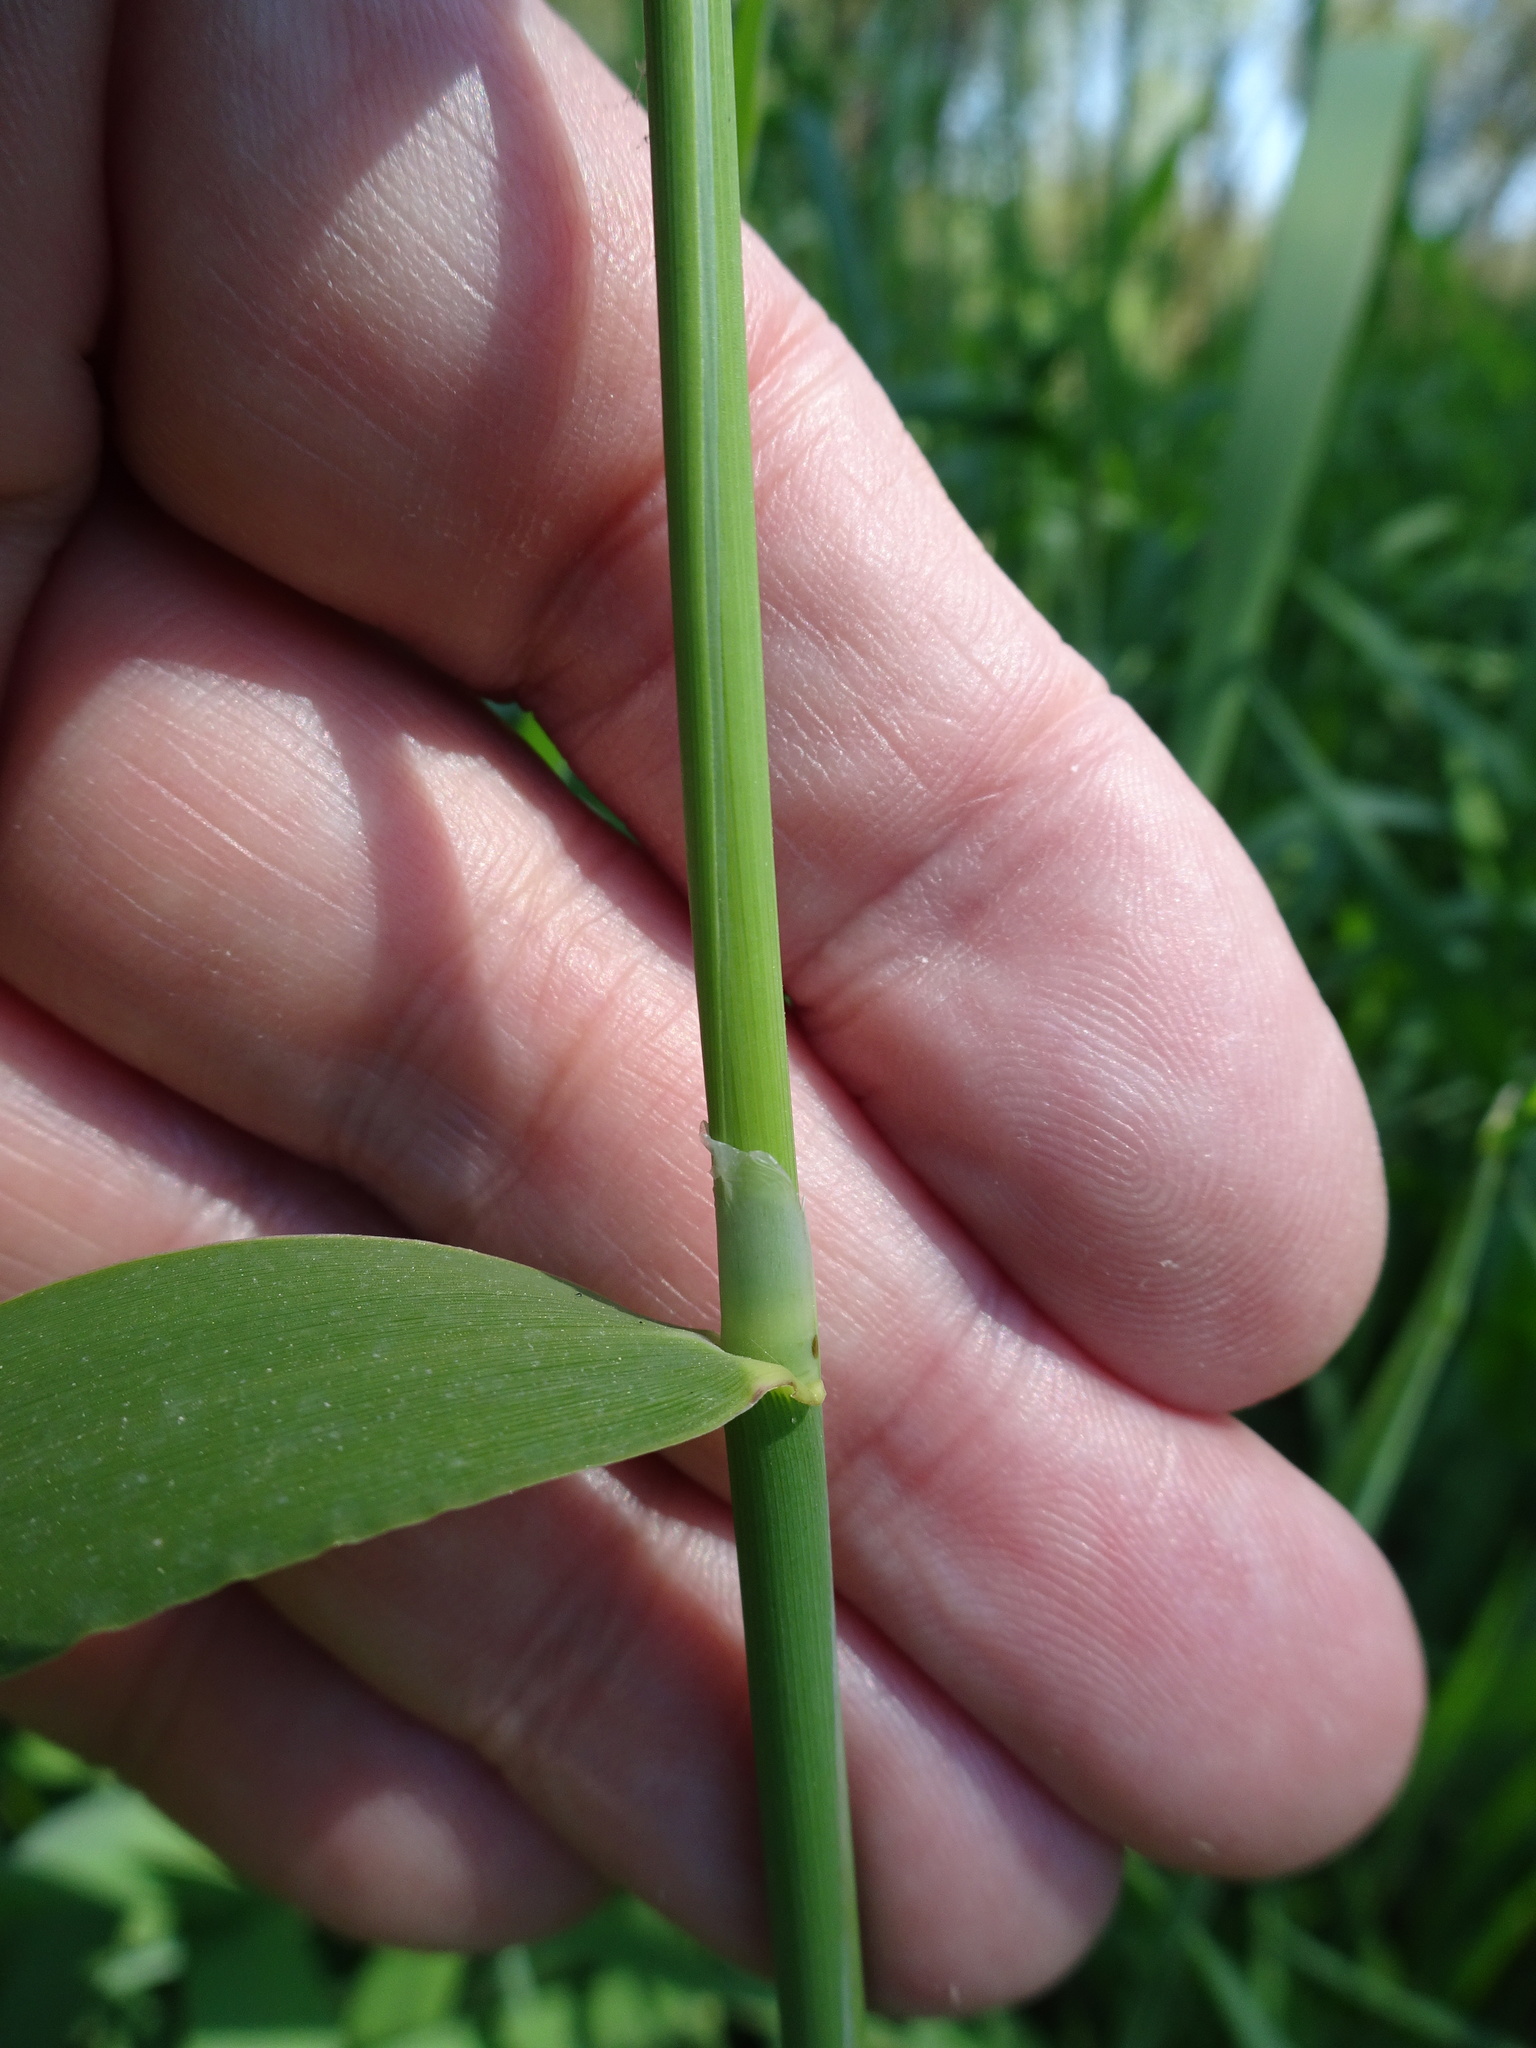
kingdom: Plantae
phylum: Tracheophyta
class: Liliopsida
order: Poales
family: Poaceae
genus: Phalaris
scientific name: Phalaris arundinacea
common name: Reed canary-grass
